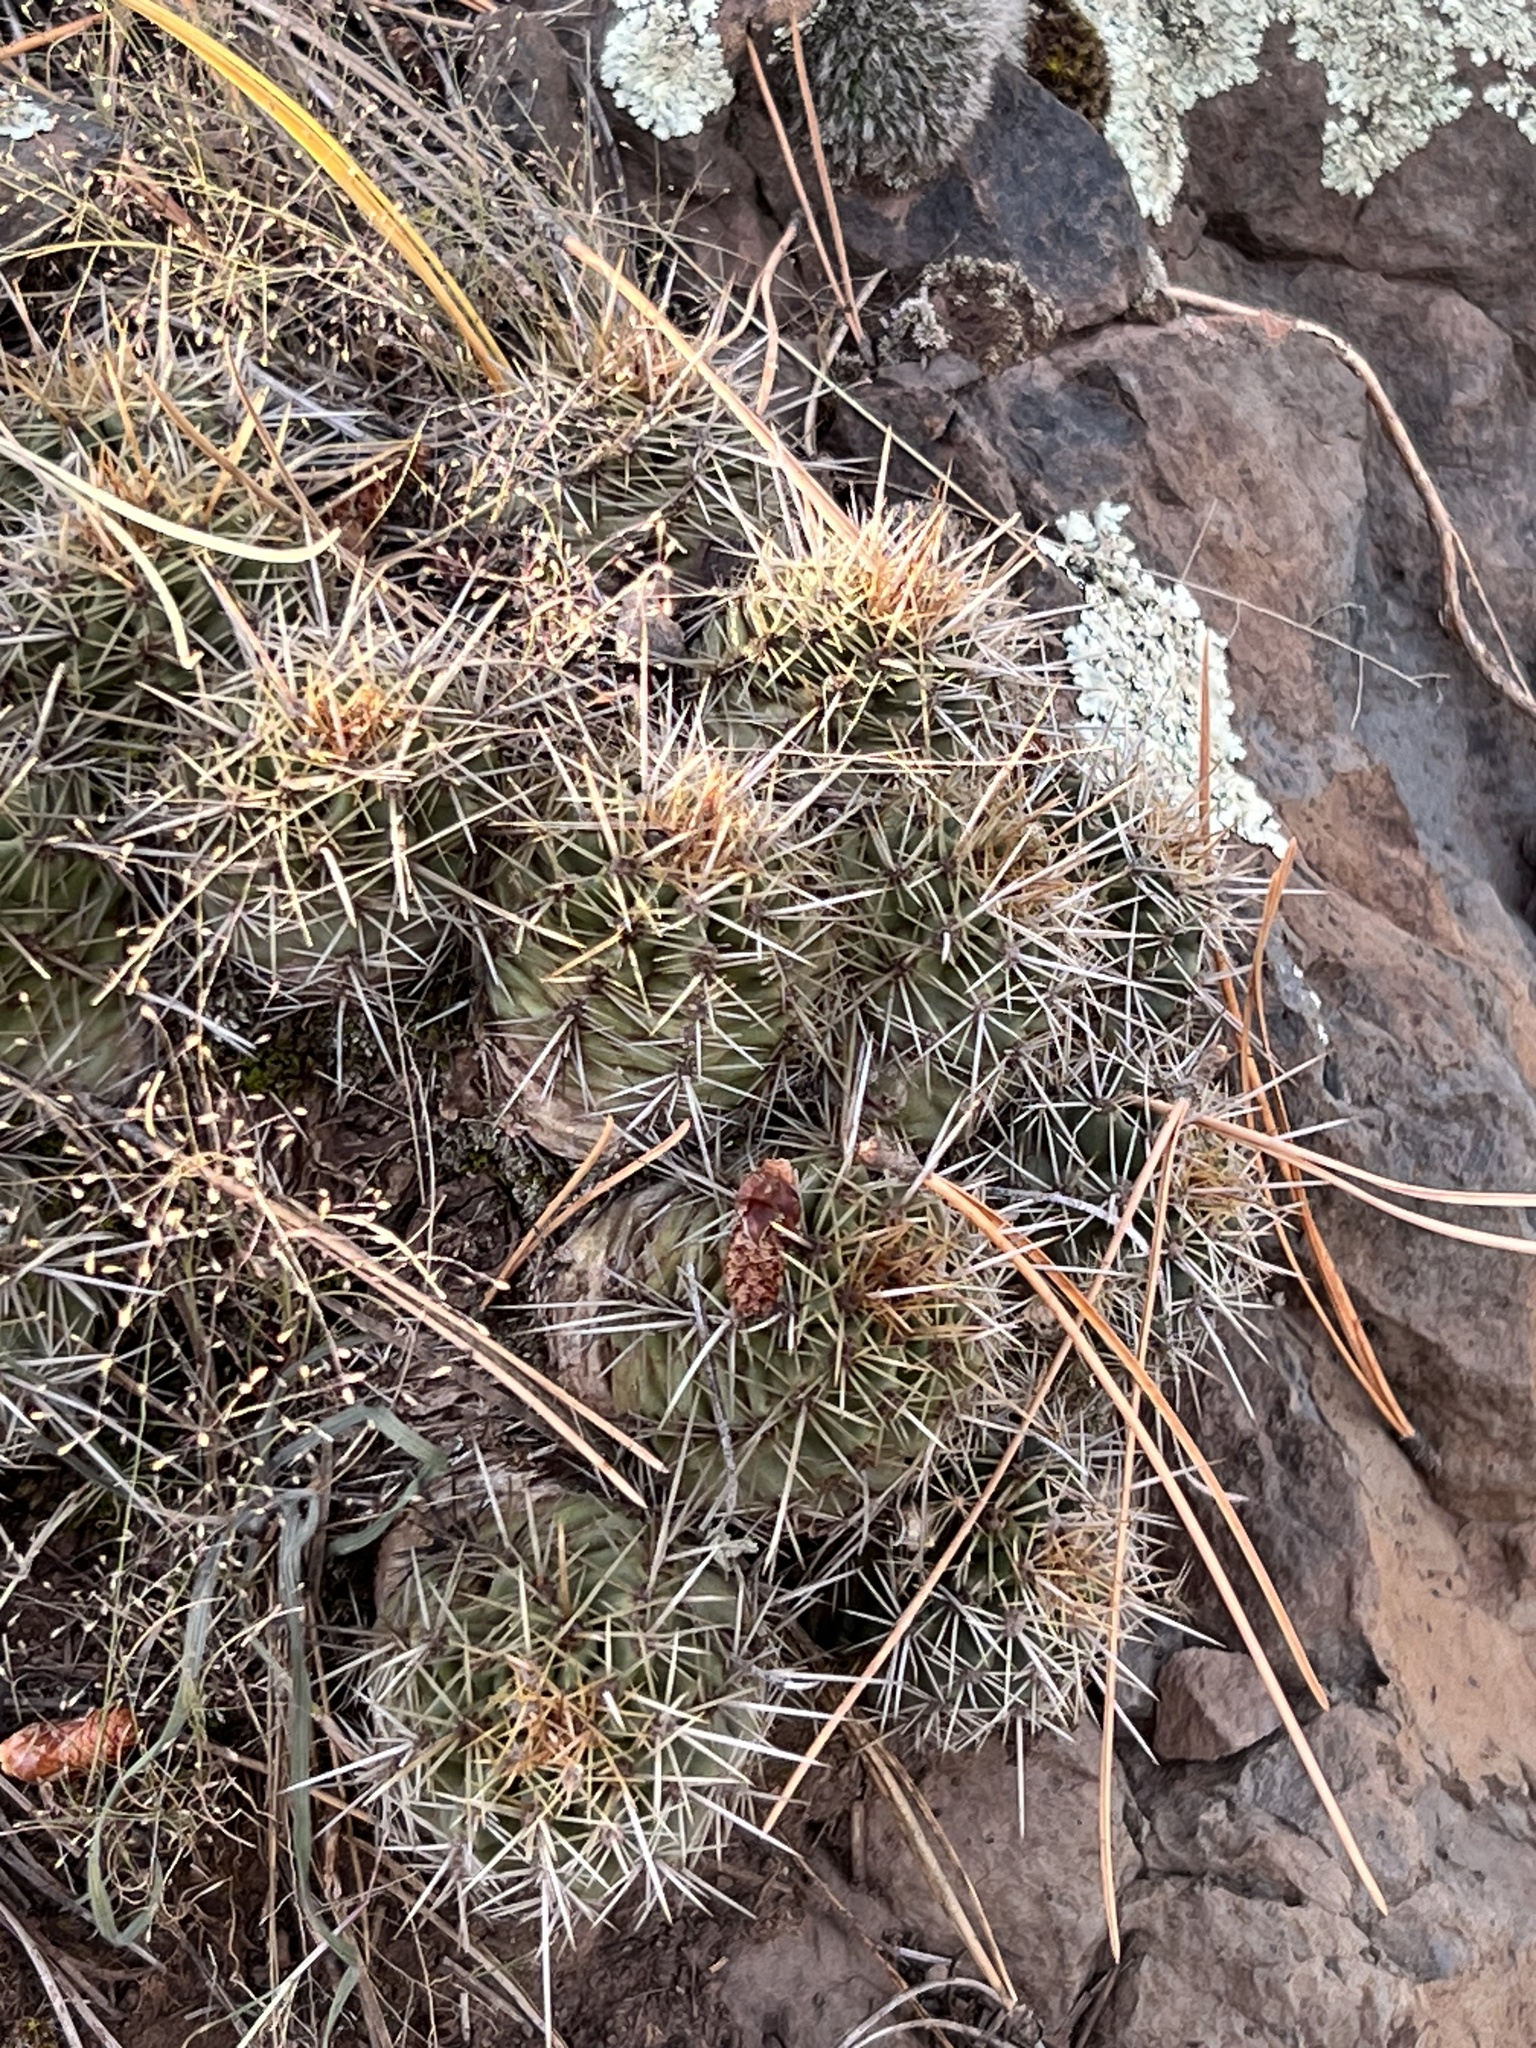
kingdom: Plantae
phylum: Tracheophyta
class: Magnoliopsida
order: Caryophyllales
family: Cactaceae
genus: Echinocereus
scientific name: Echinocereus bakeri
